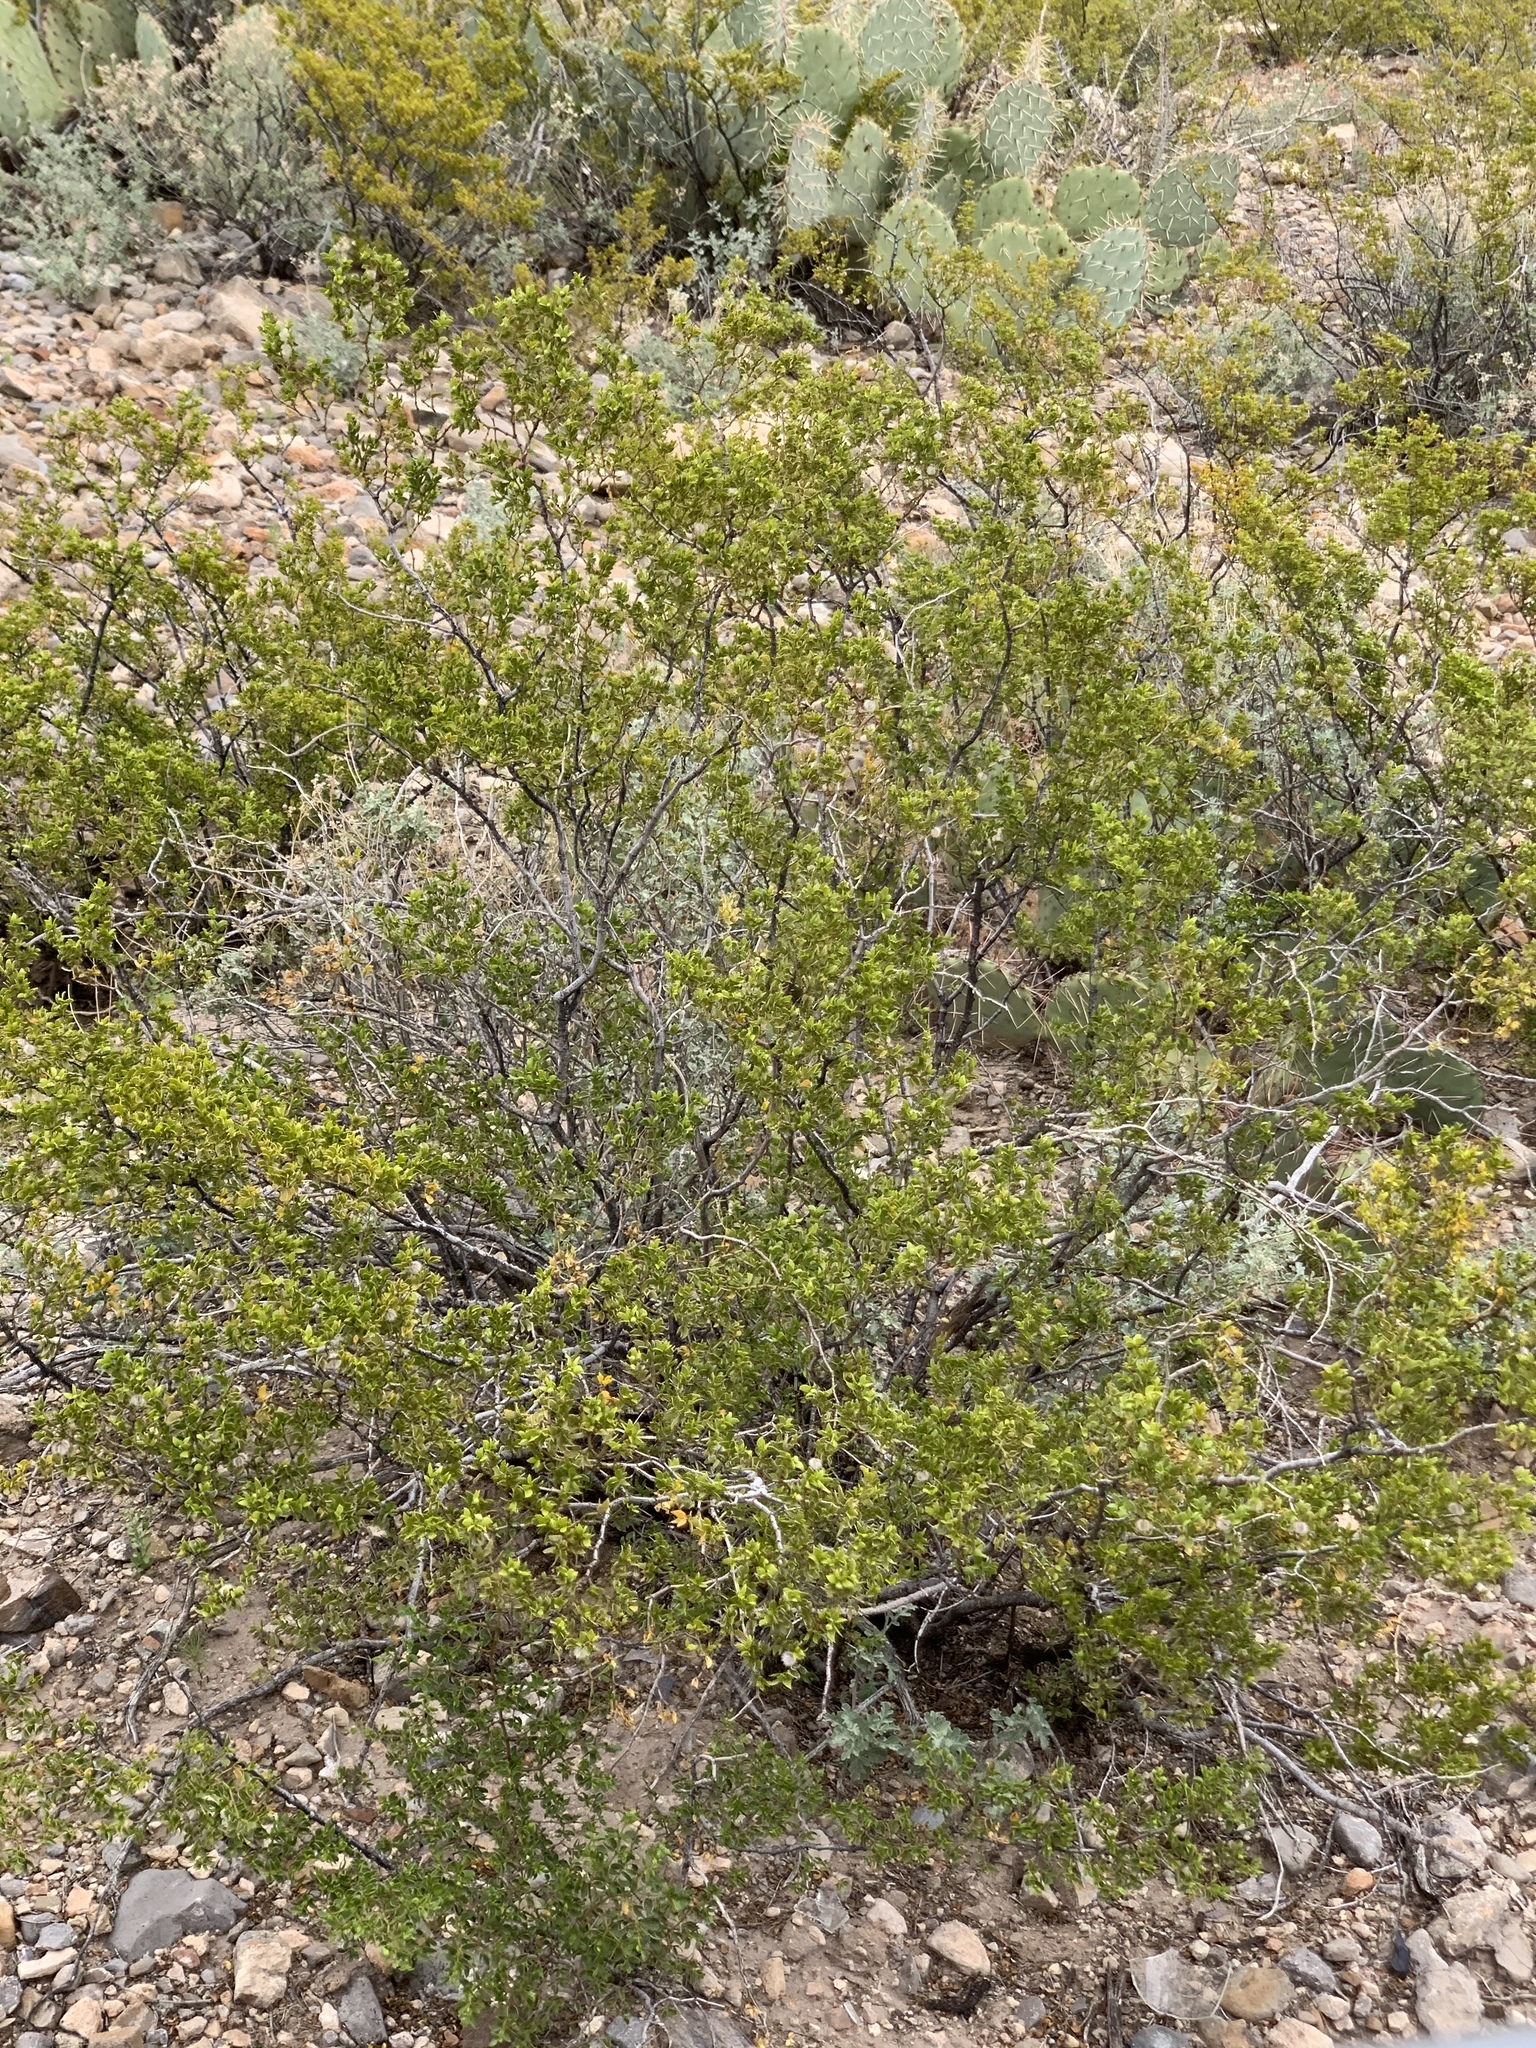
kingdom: Plantae
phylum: Tracheophyta
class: Magnoliopsida
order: Zygophyllales
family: Zygophyllaceae
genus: Larrea
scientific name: Larrea tridentata
